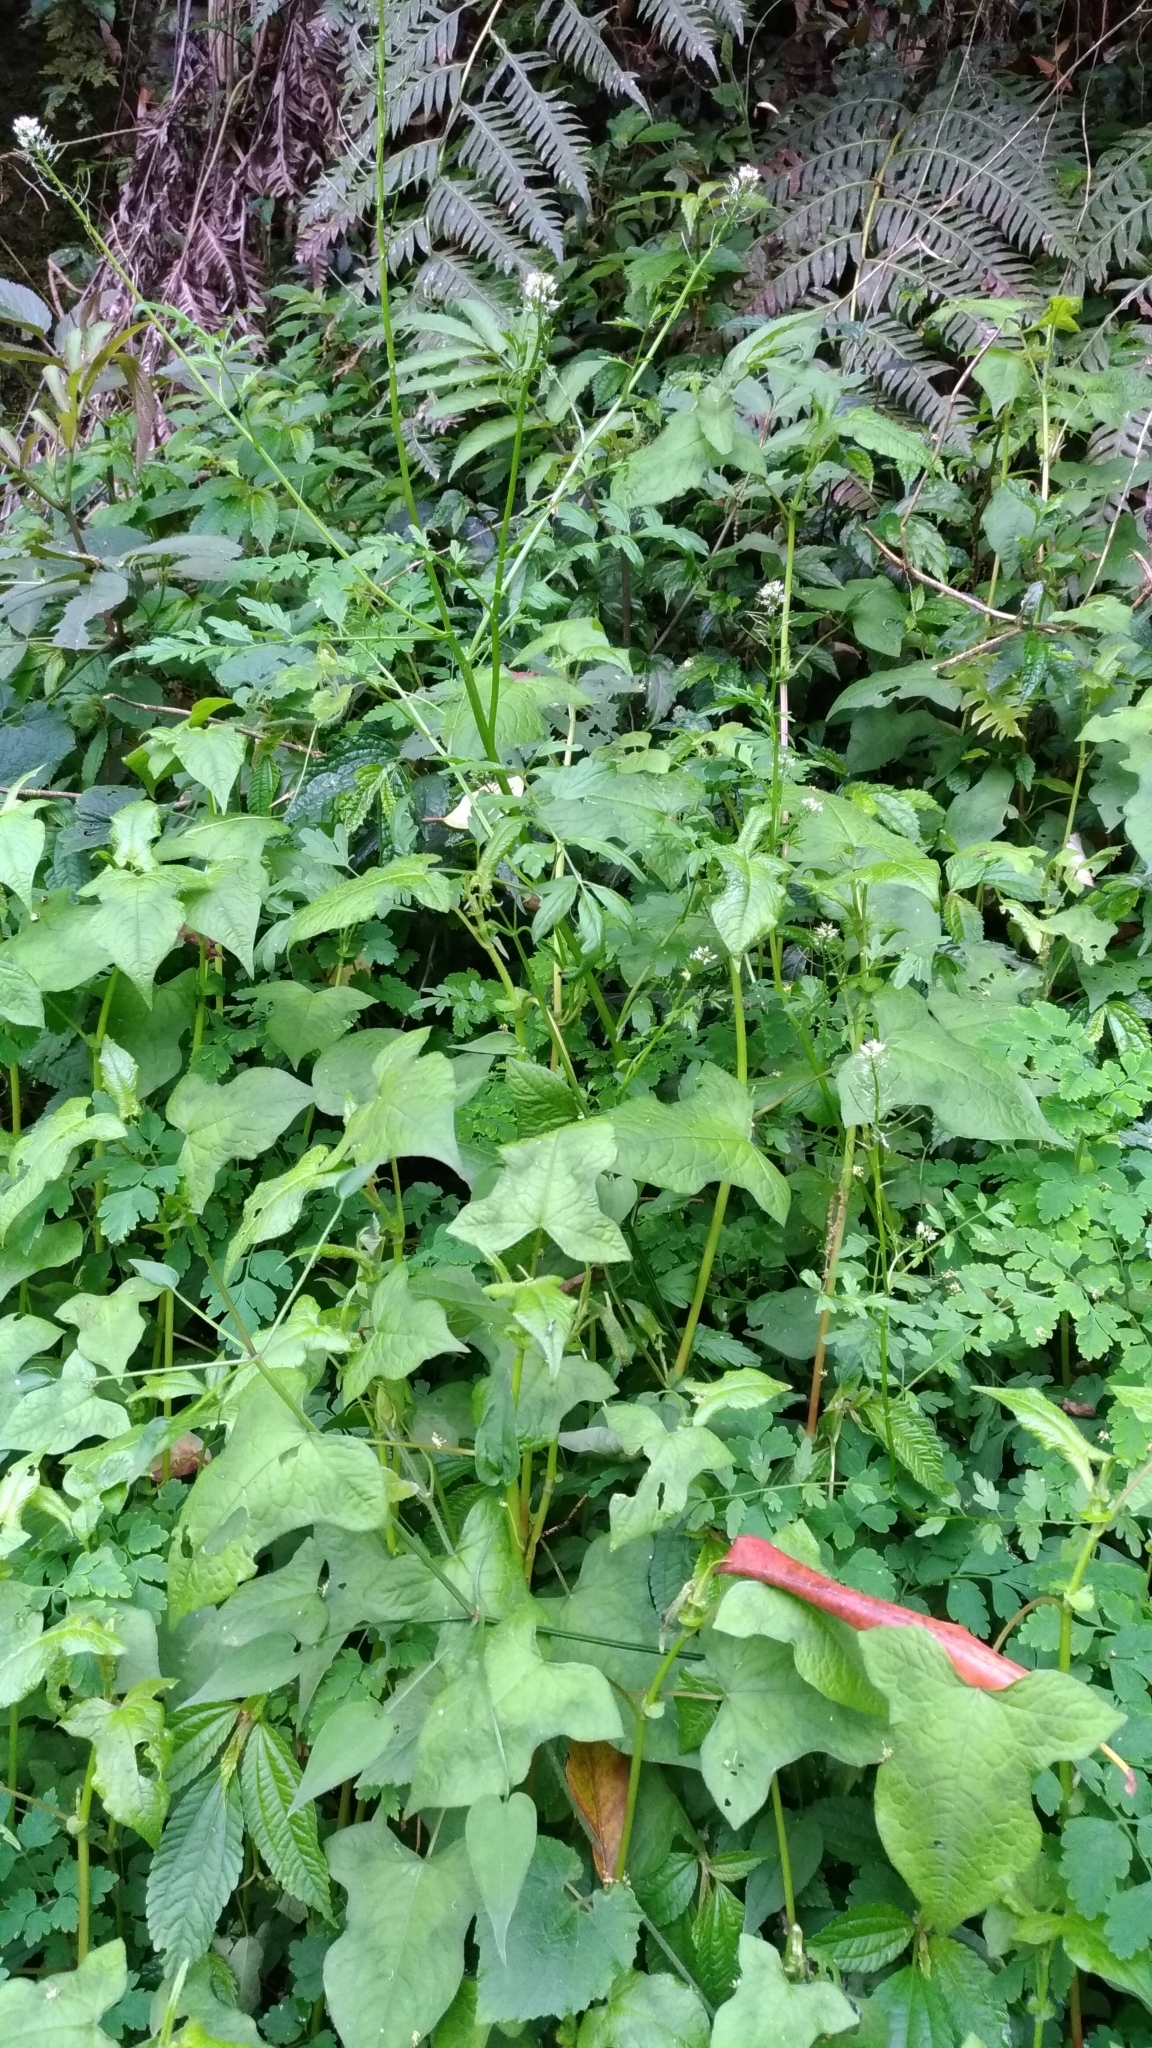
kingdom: Plantae
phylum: Tracheophyta
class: Magnoliopsida
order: Brassicales
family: Brassicaceae
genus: Cardamine
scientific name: Cardamine impatiens
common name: Narrow-leaved bitter-cress
